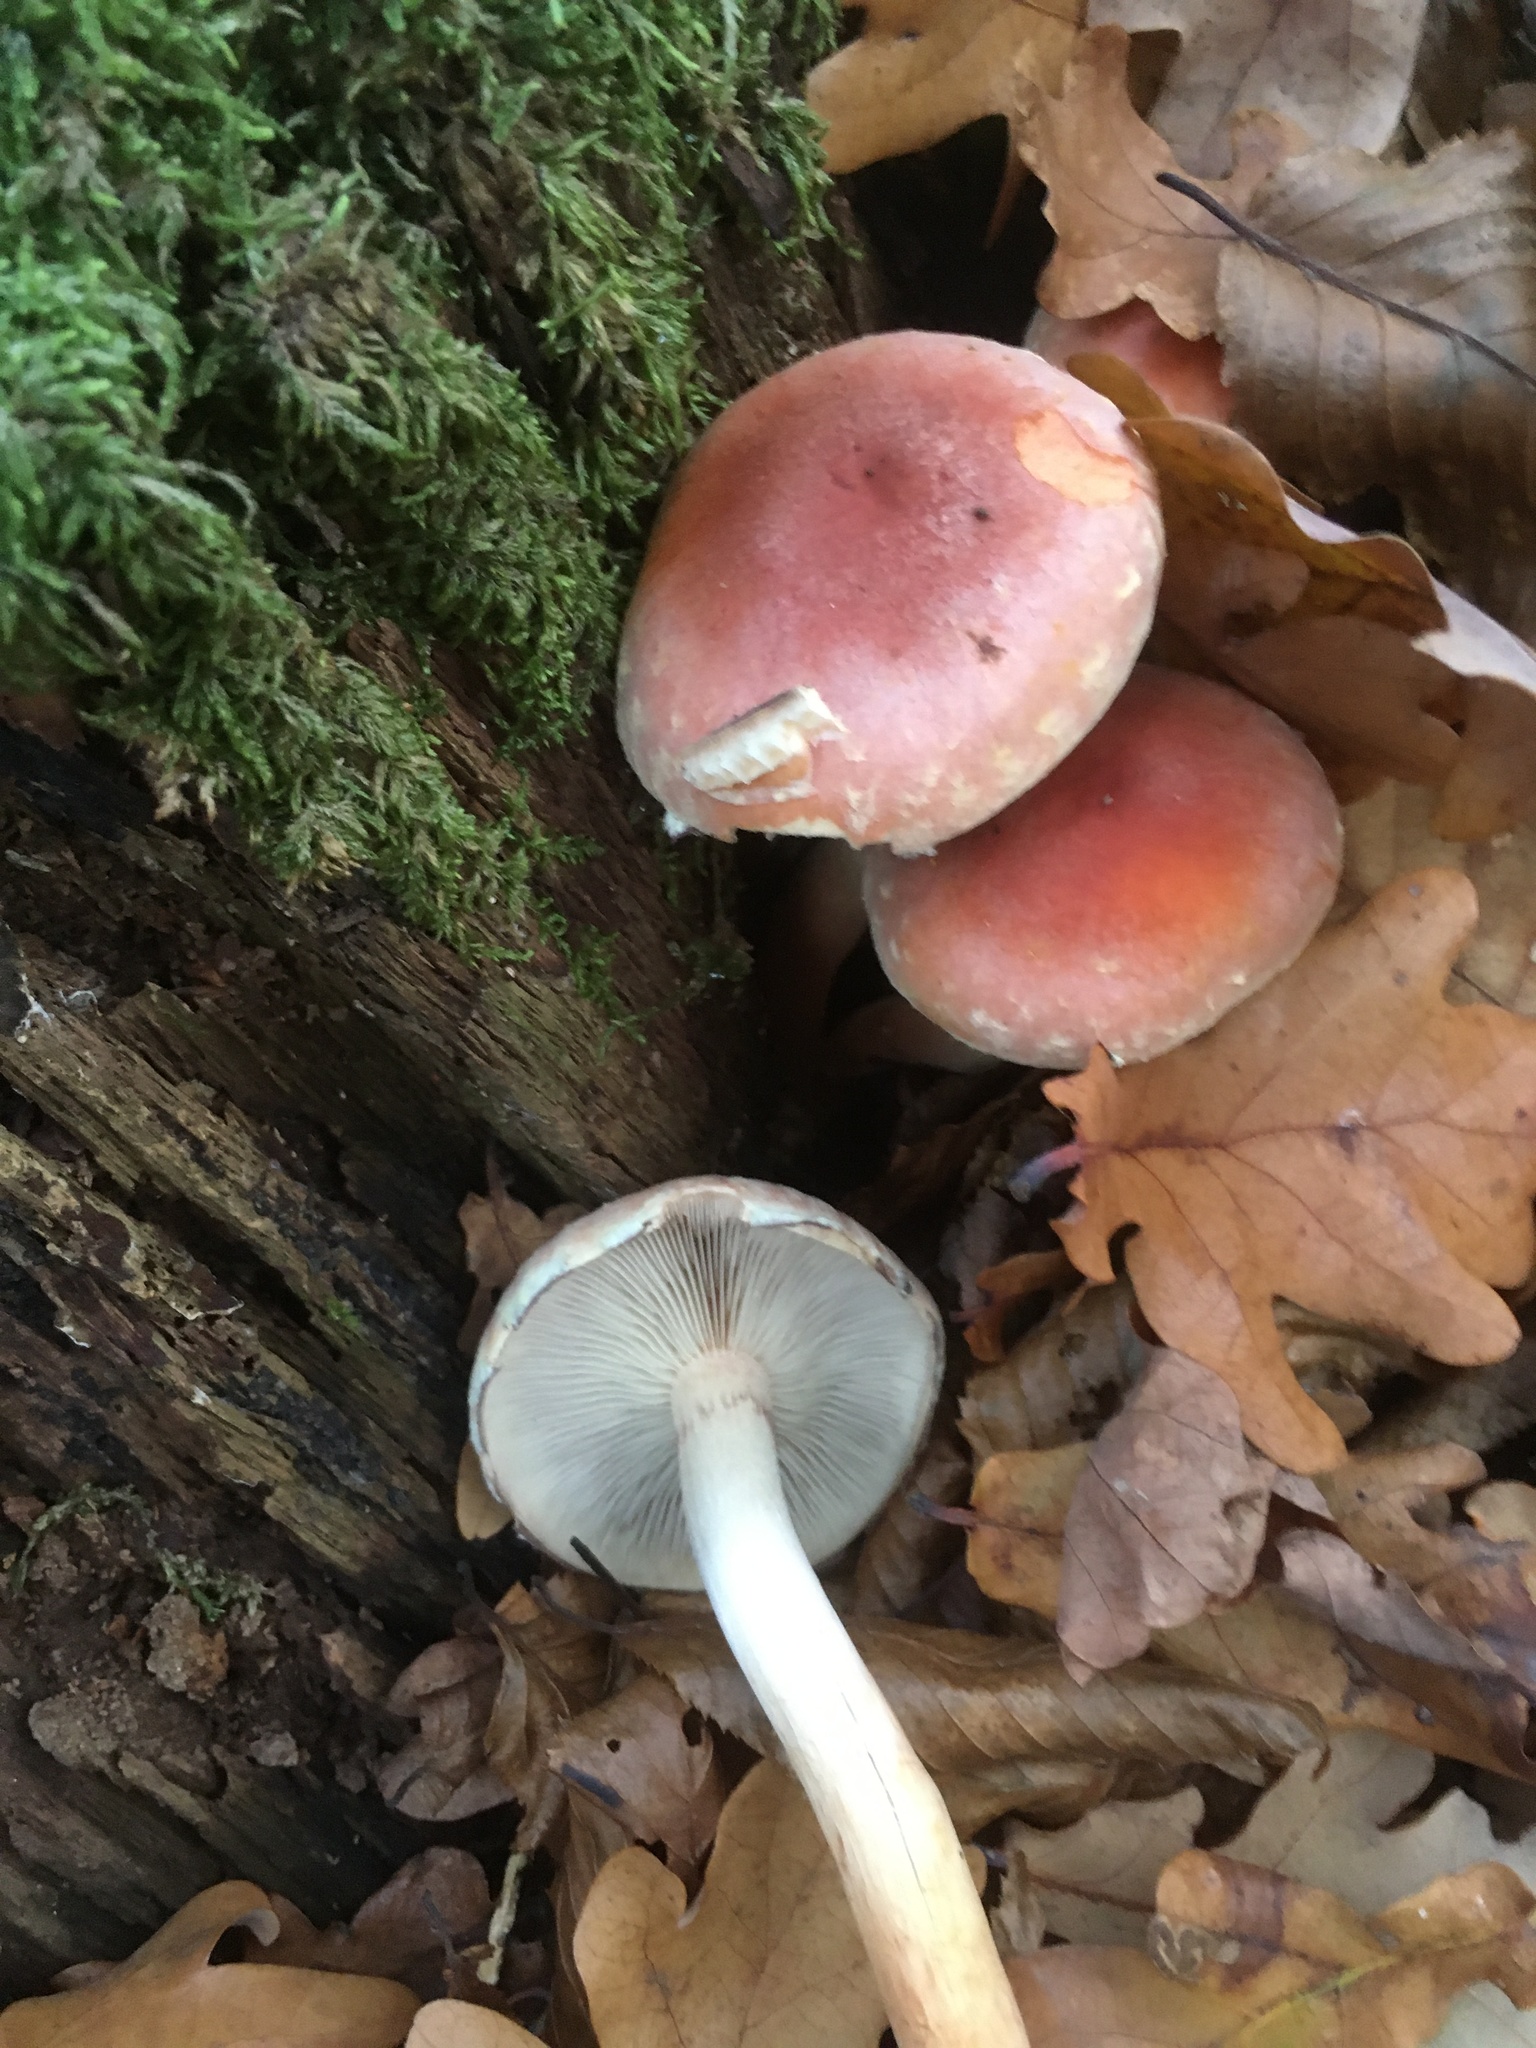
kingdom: Fungi
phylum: Basidiomycota
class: Agaricomycetes
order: Agaricales
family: Strophariaceae
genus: Hypholoma
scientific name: Hypholoma lateritium
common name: Brick caps
